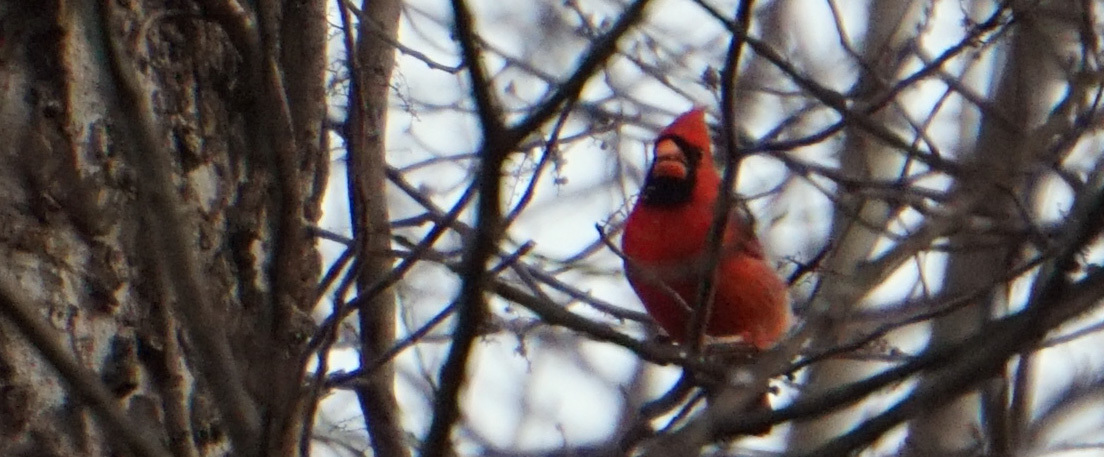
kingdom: Animalia
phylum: Chordata
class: Aves
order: Passeriformes
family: Cardinalidae
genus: Cardinalis
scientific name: Cardinalis cardinalis
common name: Northern cardinal
